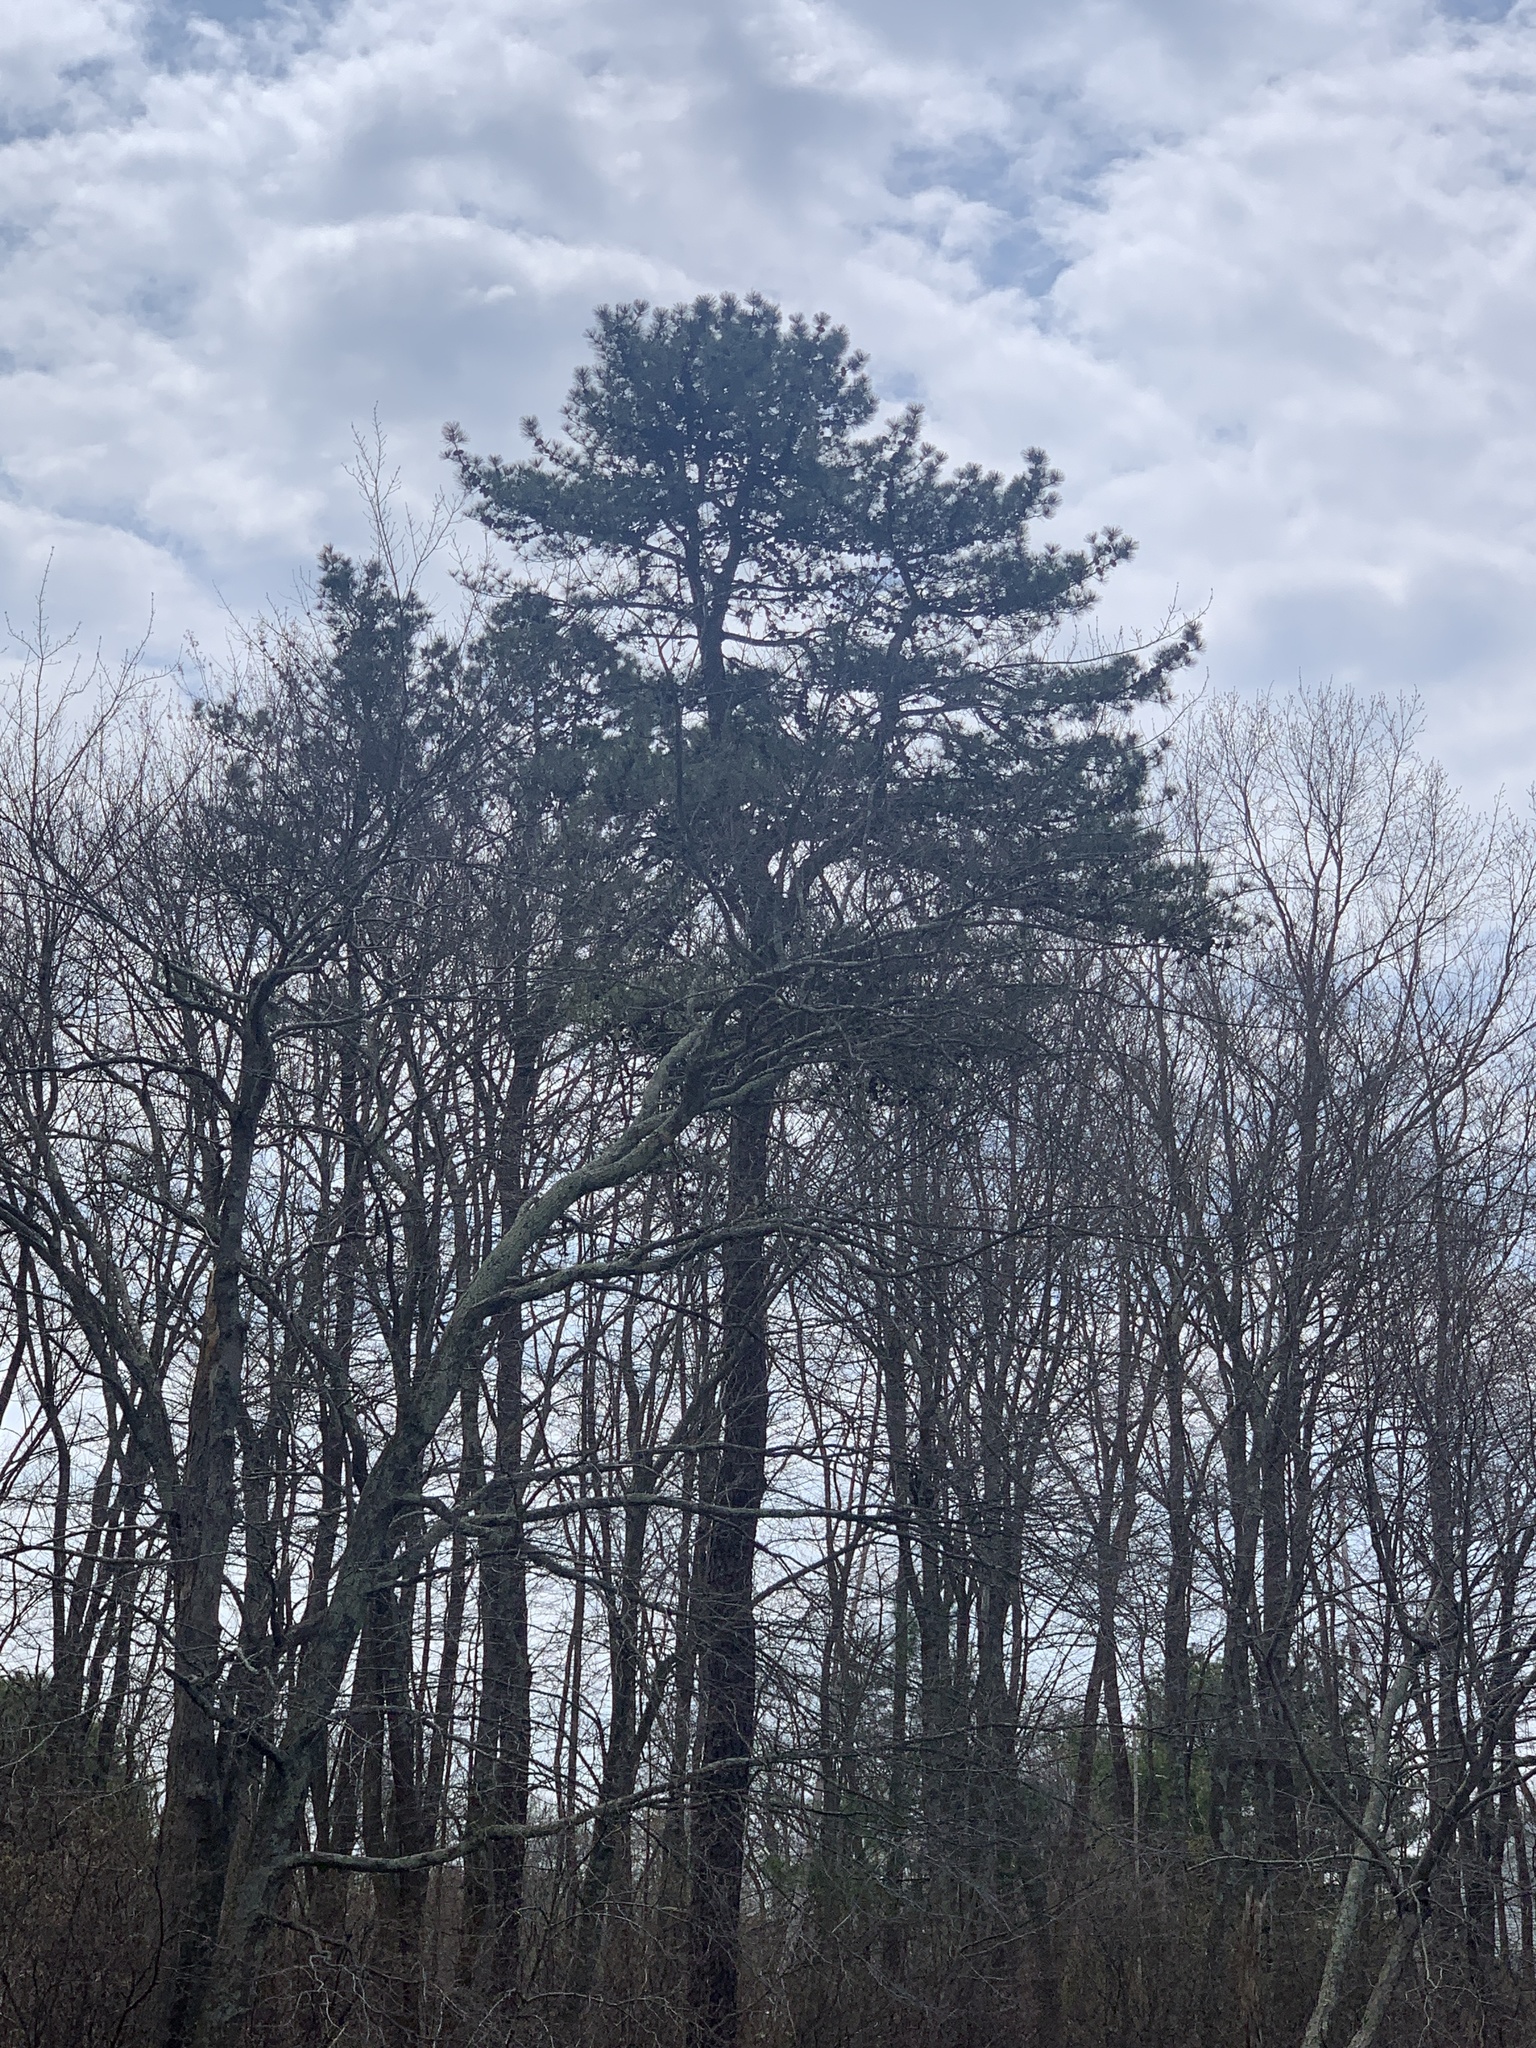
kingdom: Plantae
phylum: Tracheophyta
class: Pinopsida
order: Pinales
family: Pinaceae
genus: Pinus
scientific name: Pinus rigida
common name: Pitch pine
